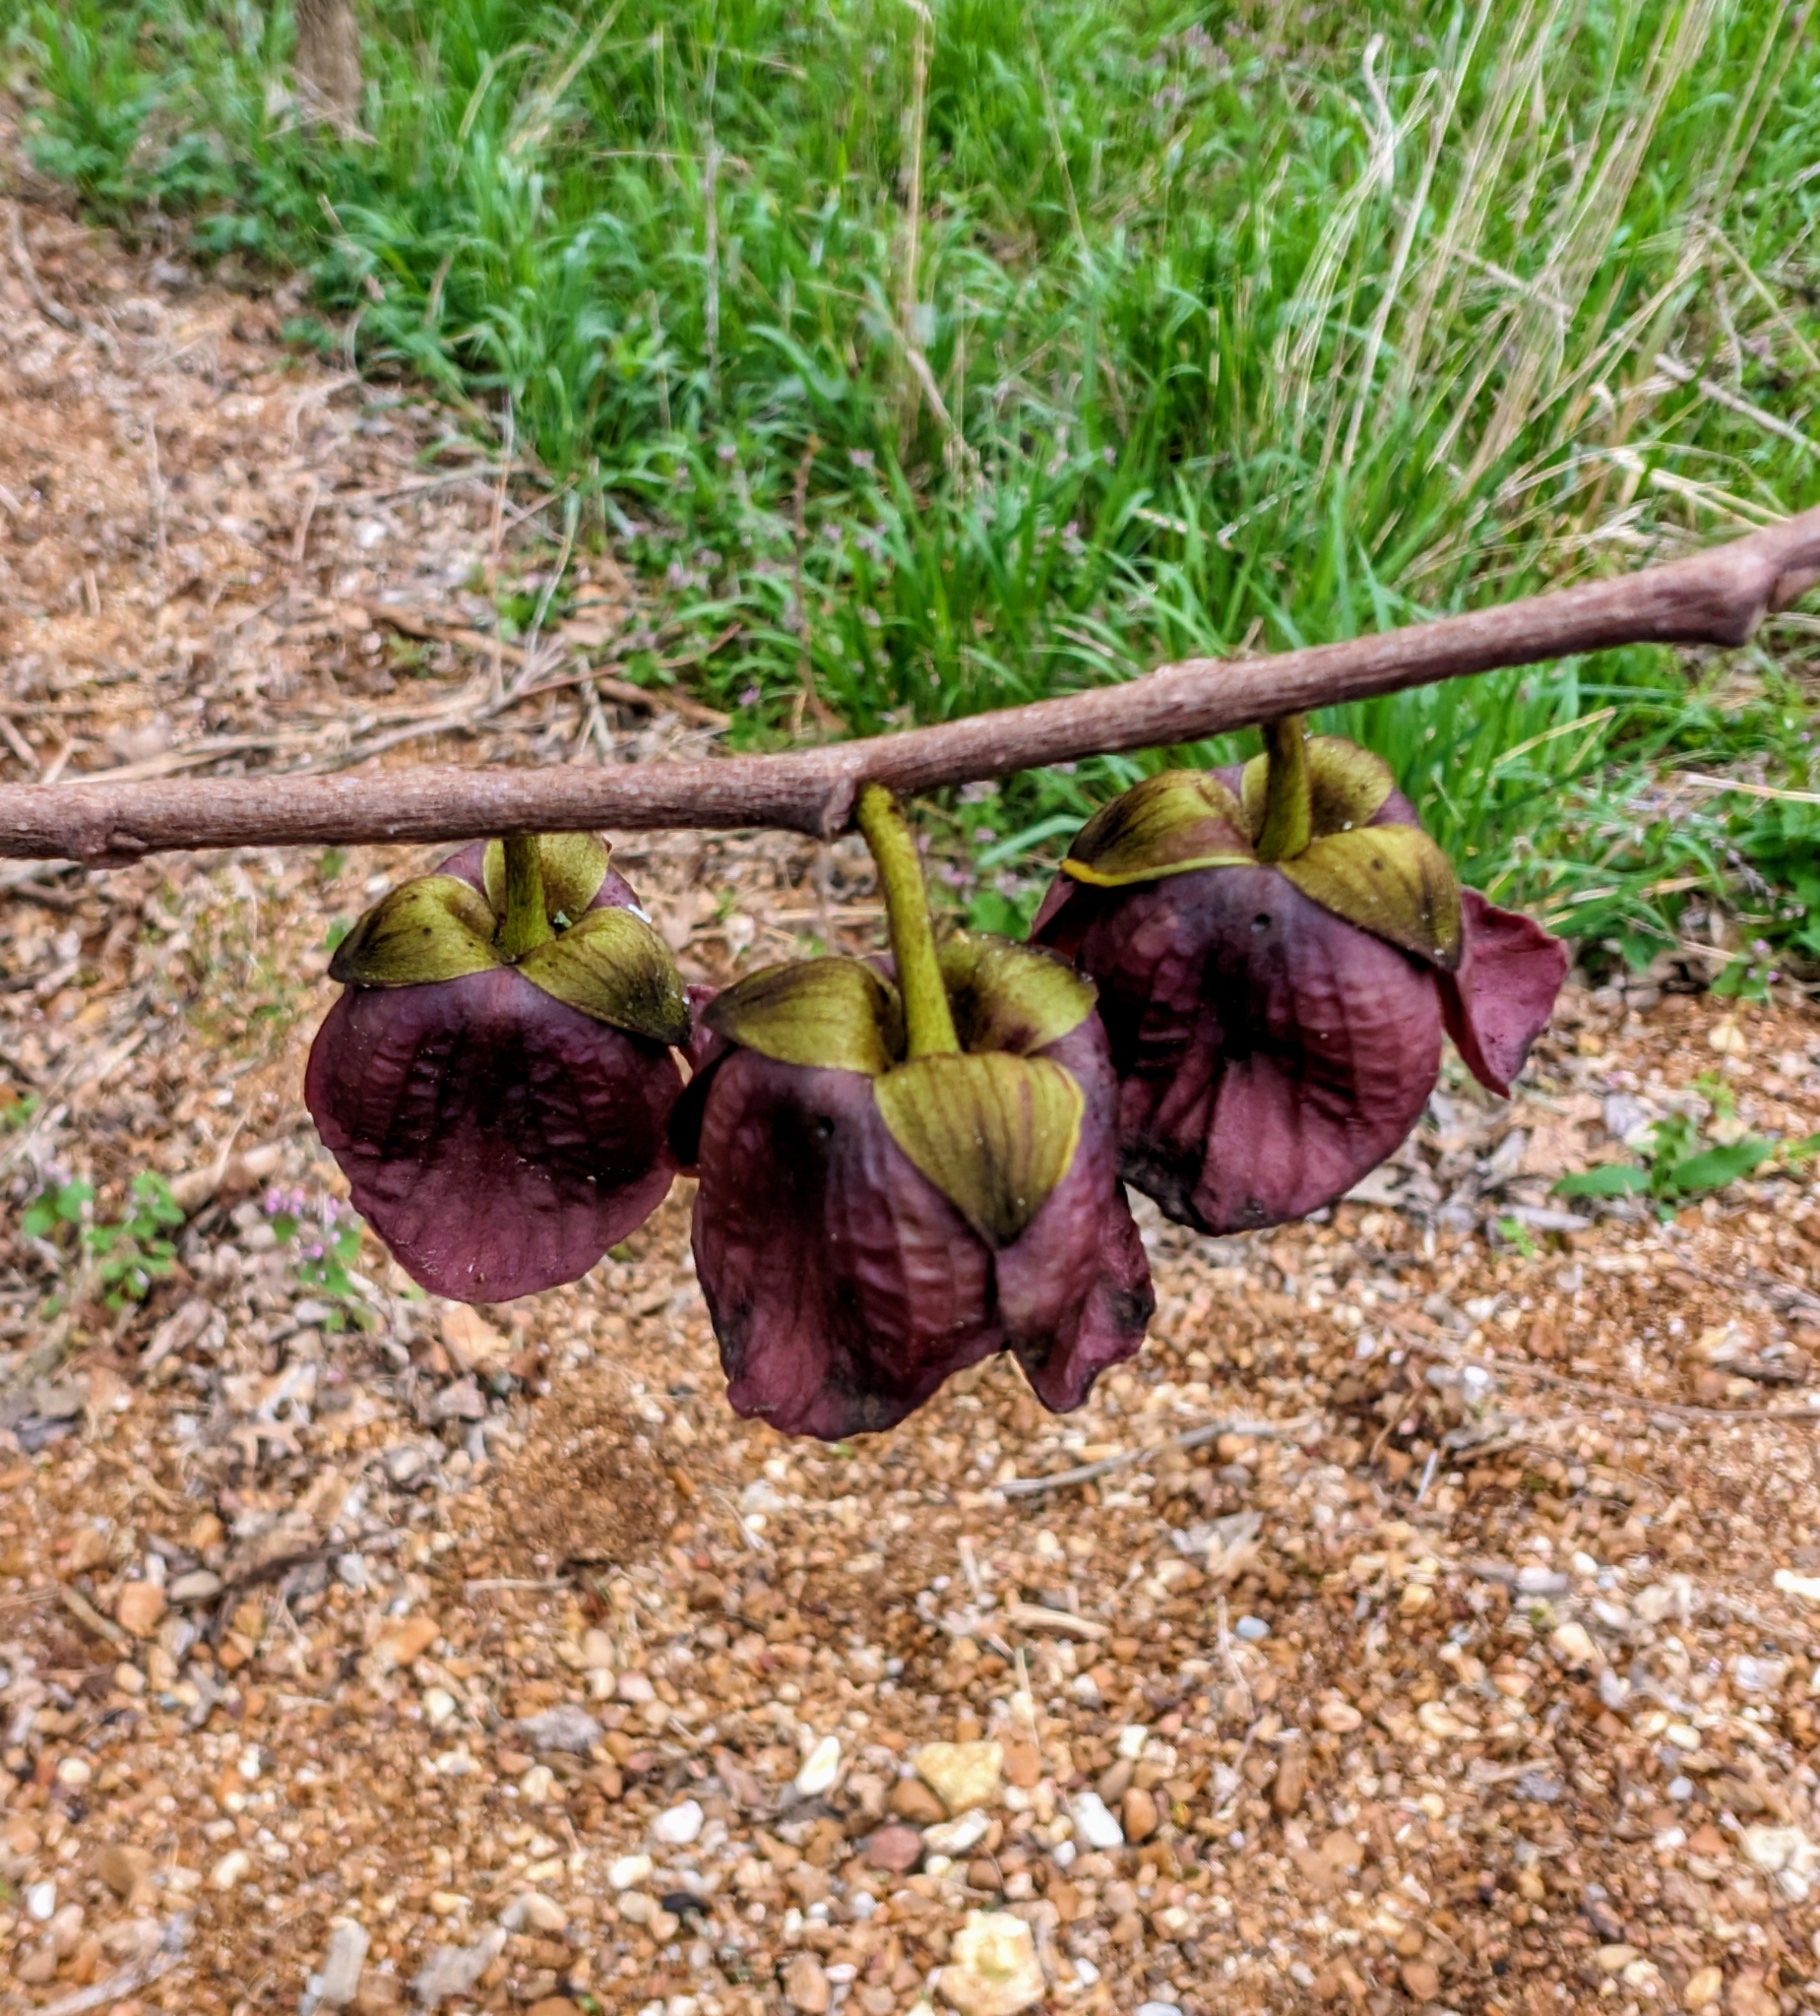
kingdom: Plantae
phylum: Tracheophyta
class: Magnoliopsida
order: Magnoliales
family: Annonaceae
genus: Asimina
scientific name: Asimina triloba
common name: Dog-banana
